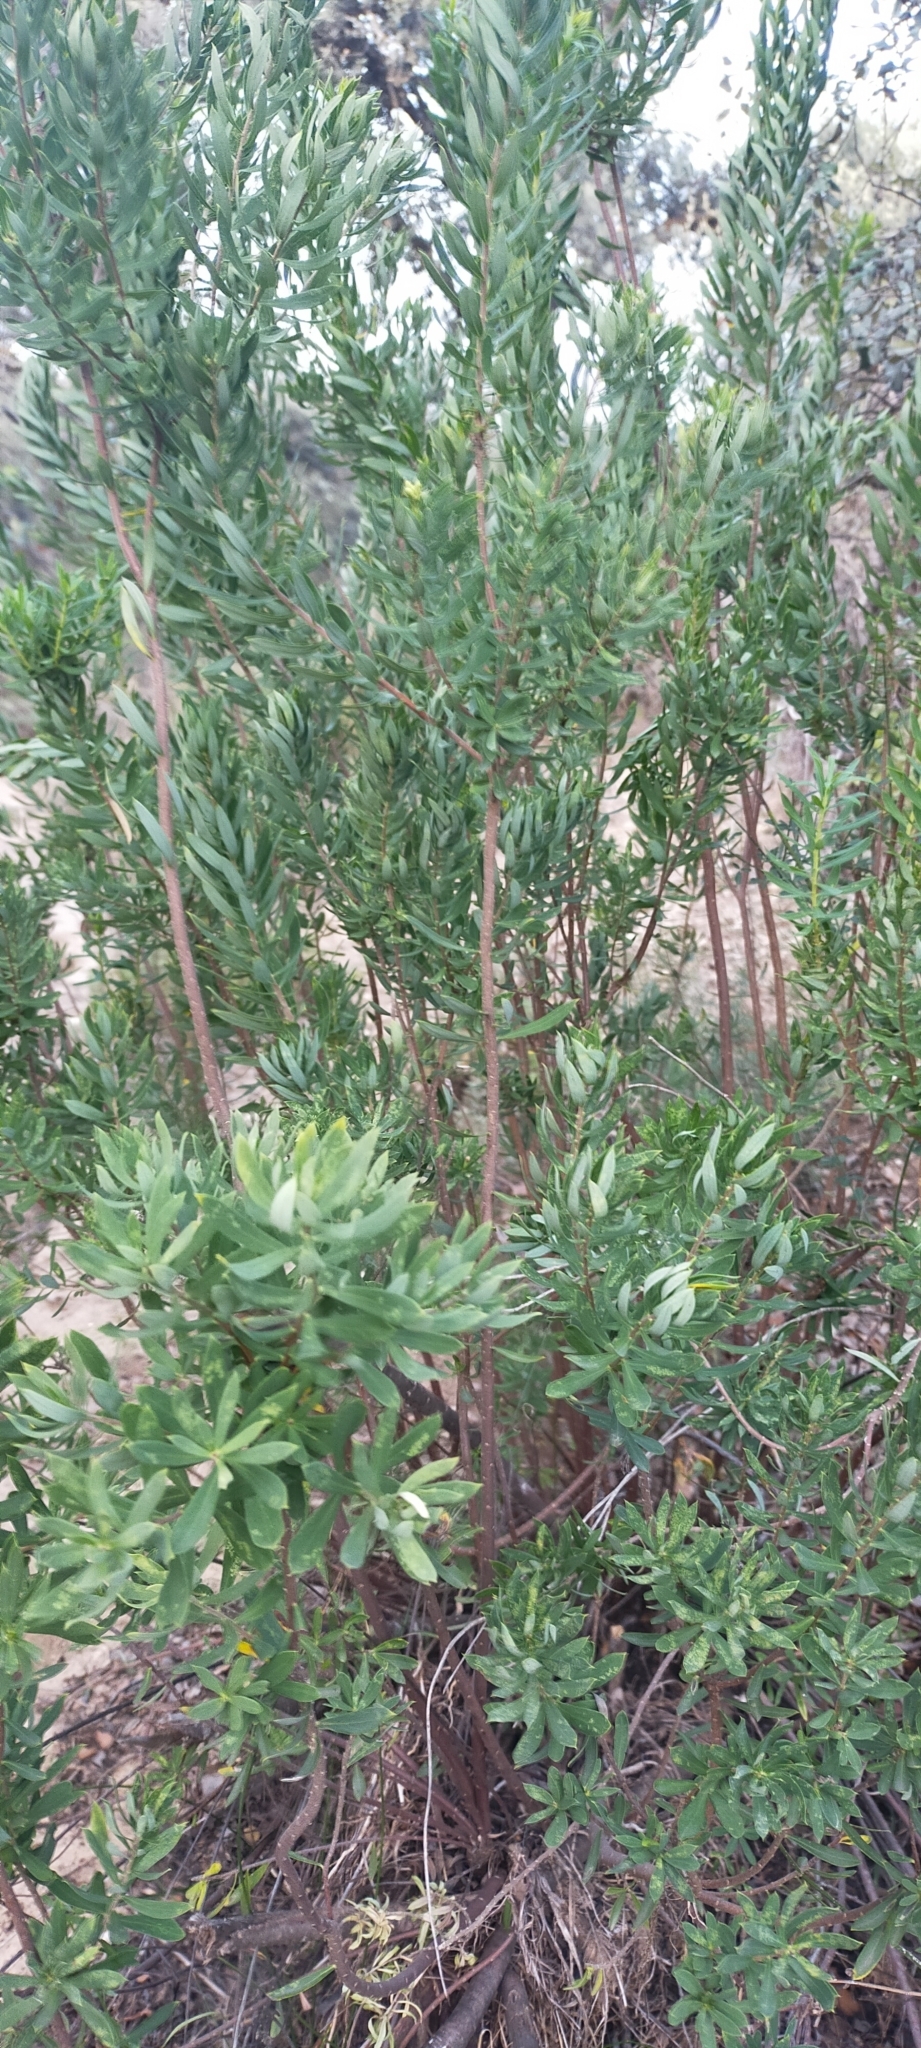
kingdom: Plantae
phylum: Tracheophyta
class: Magnoliopsida
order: Malvales
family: Thymelaeaceae
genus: Daphne
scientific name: Daphne gnidium
